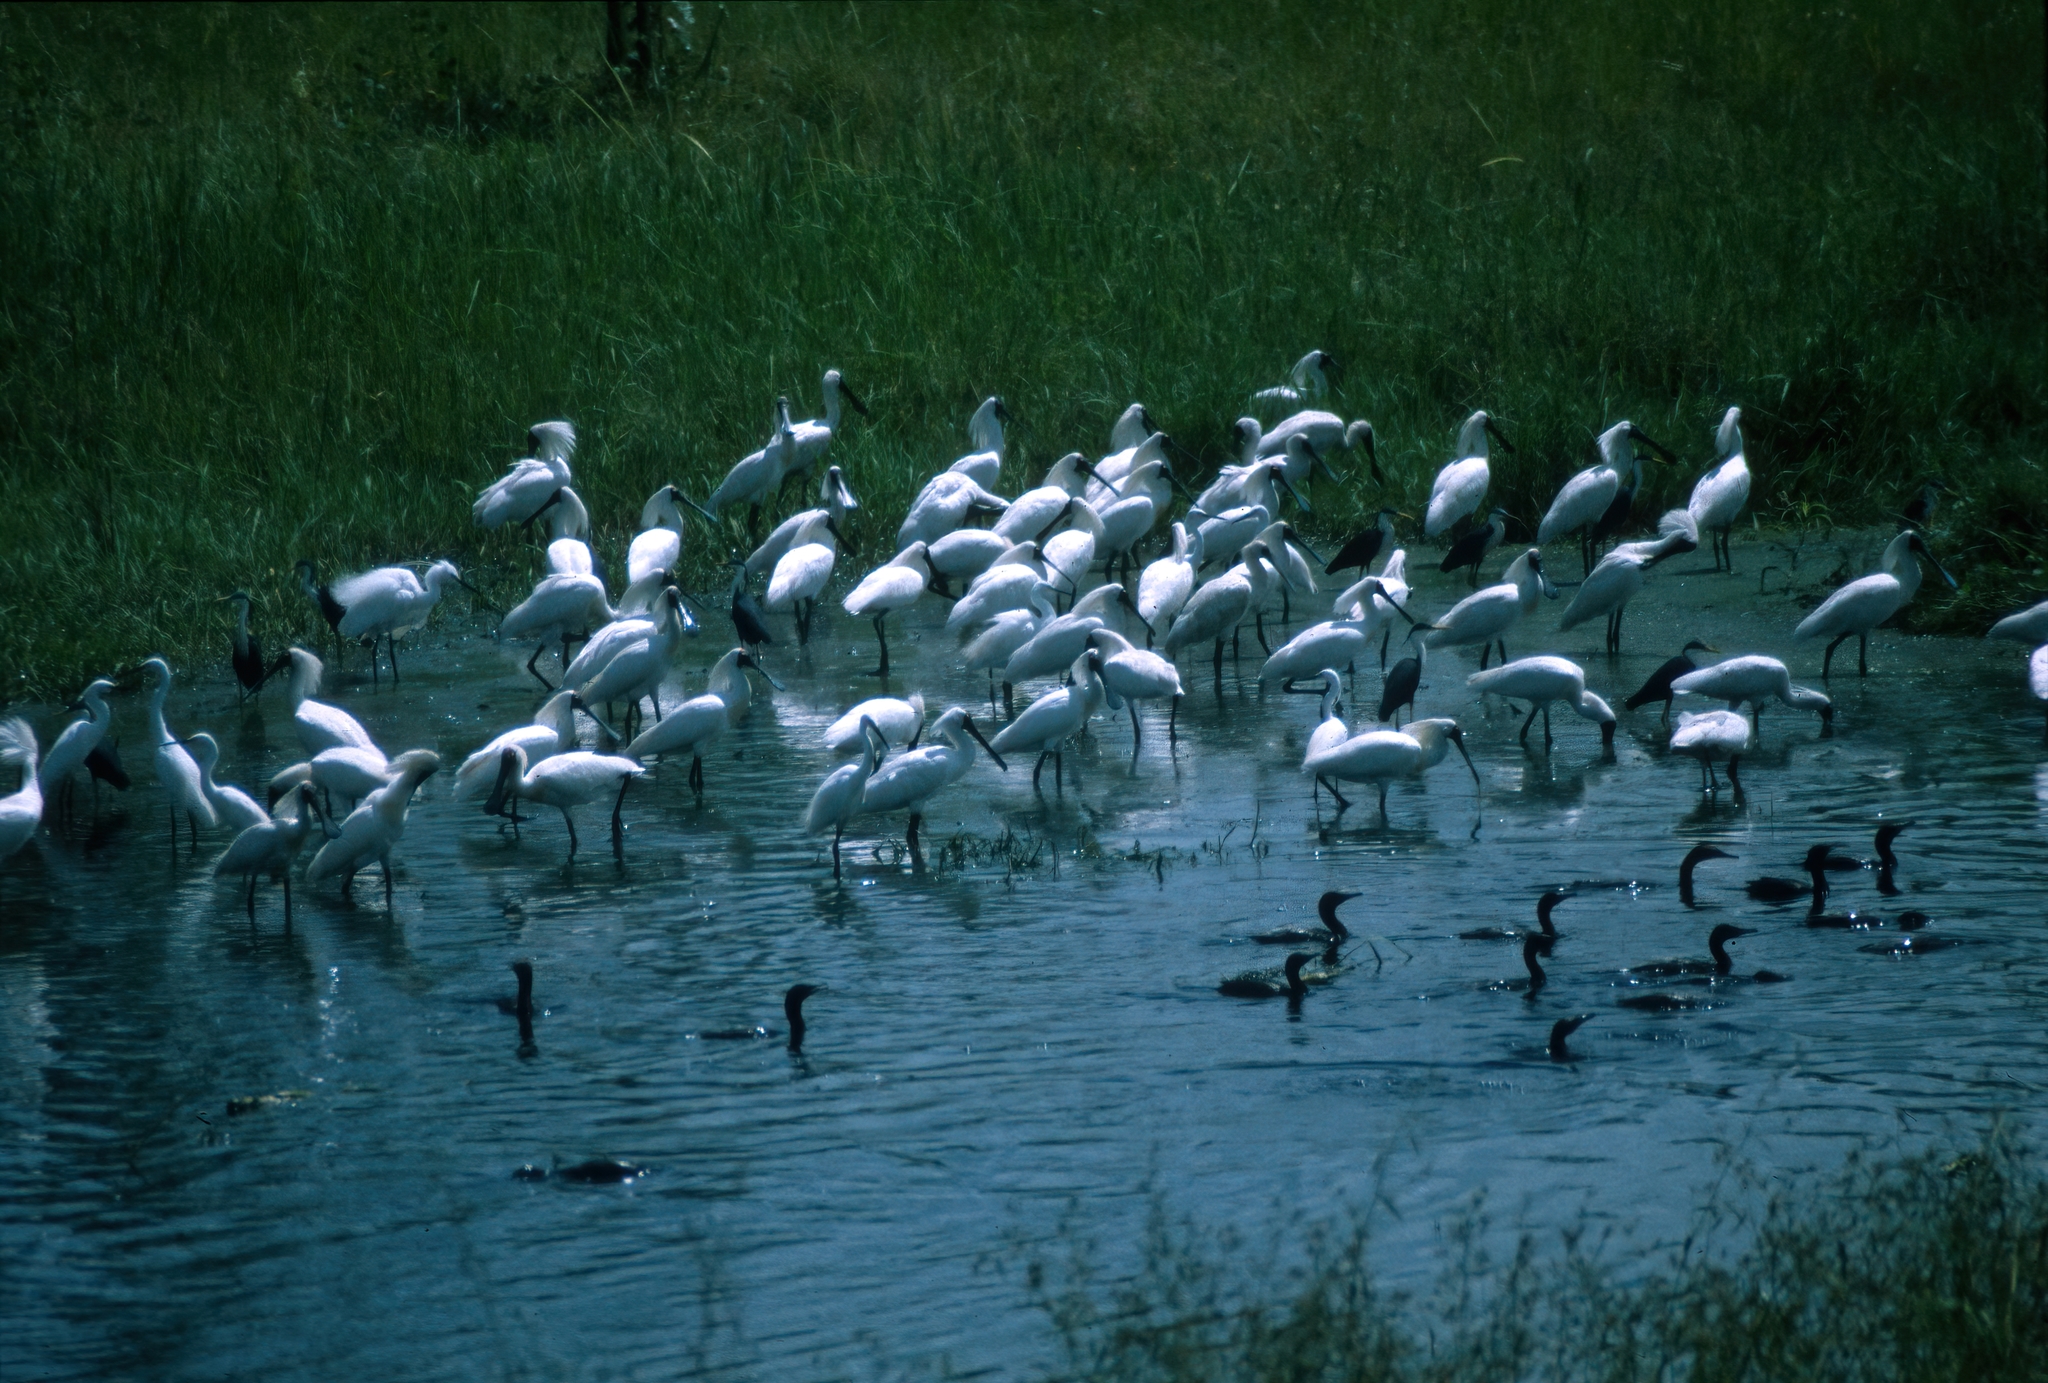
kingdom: Animalia
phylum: Chordata
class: Aves
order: Pelecaniformes
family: Threskiornithidae
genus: Platalea
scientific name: Platalea regia
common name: Royal spoonbill
